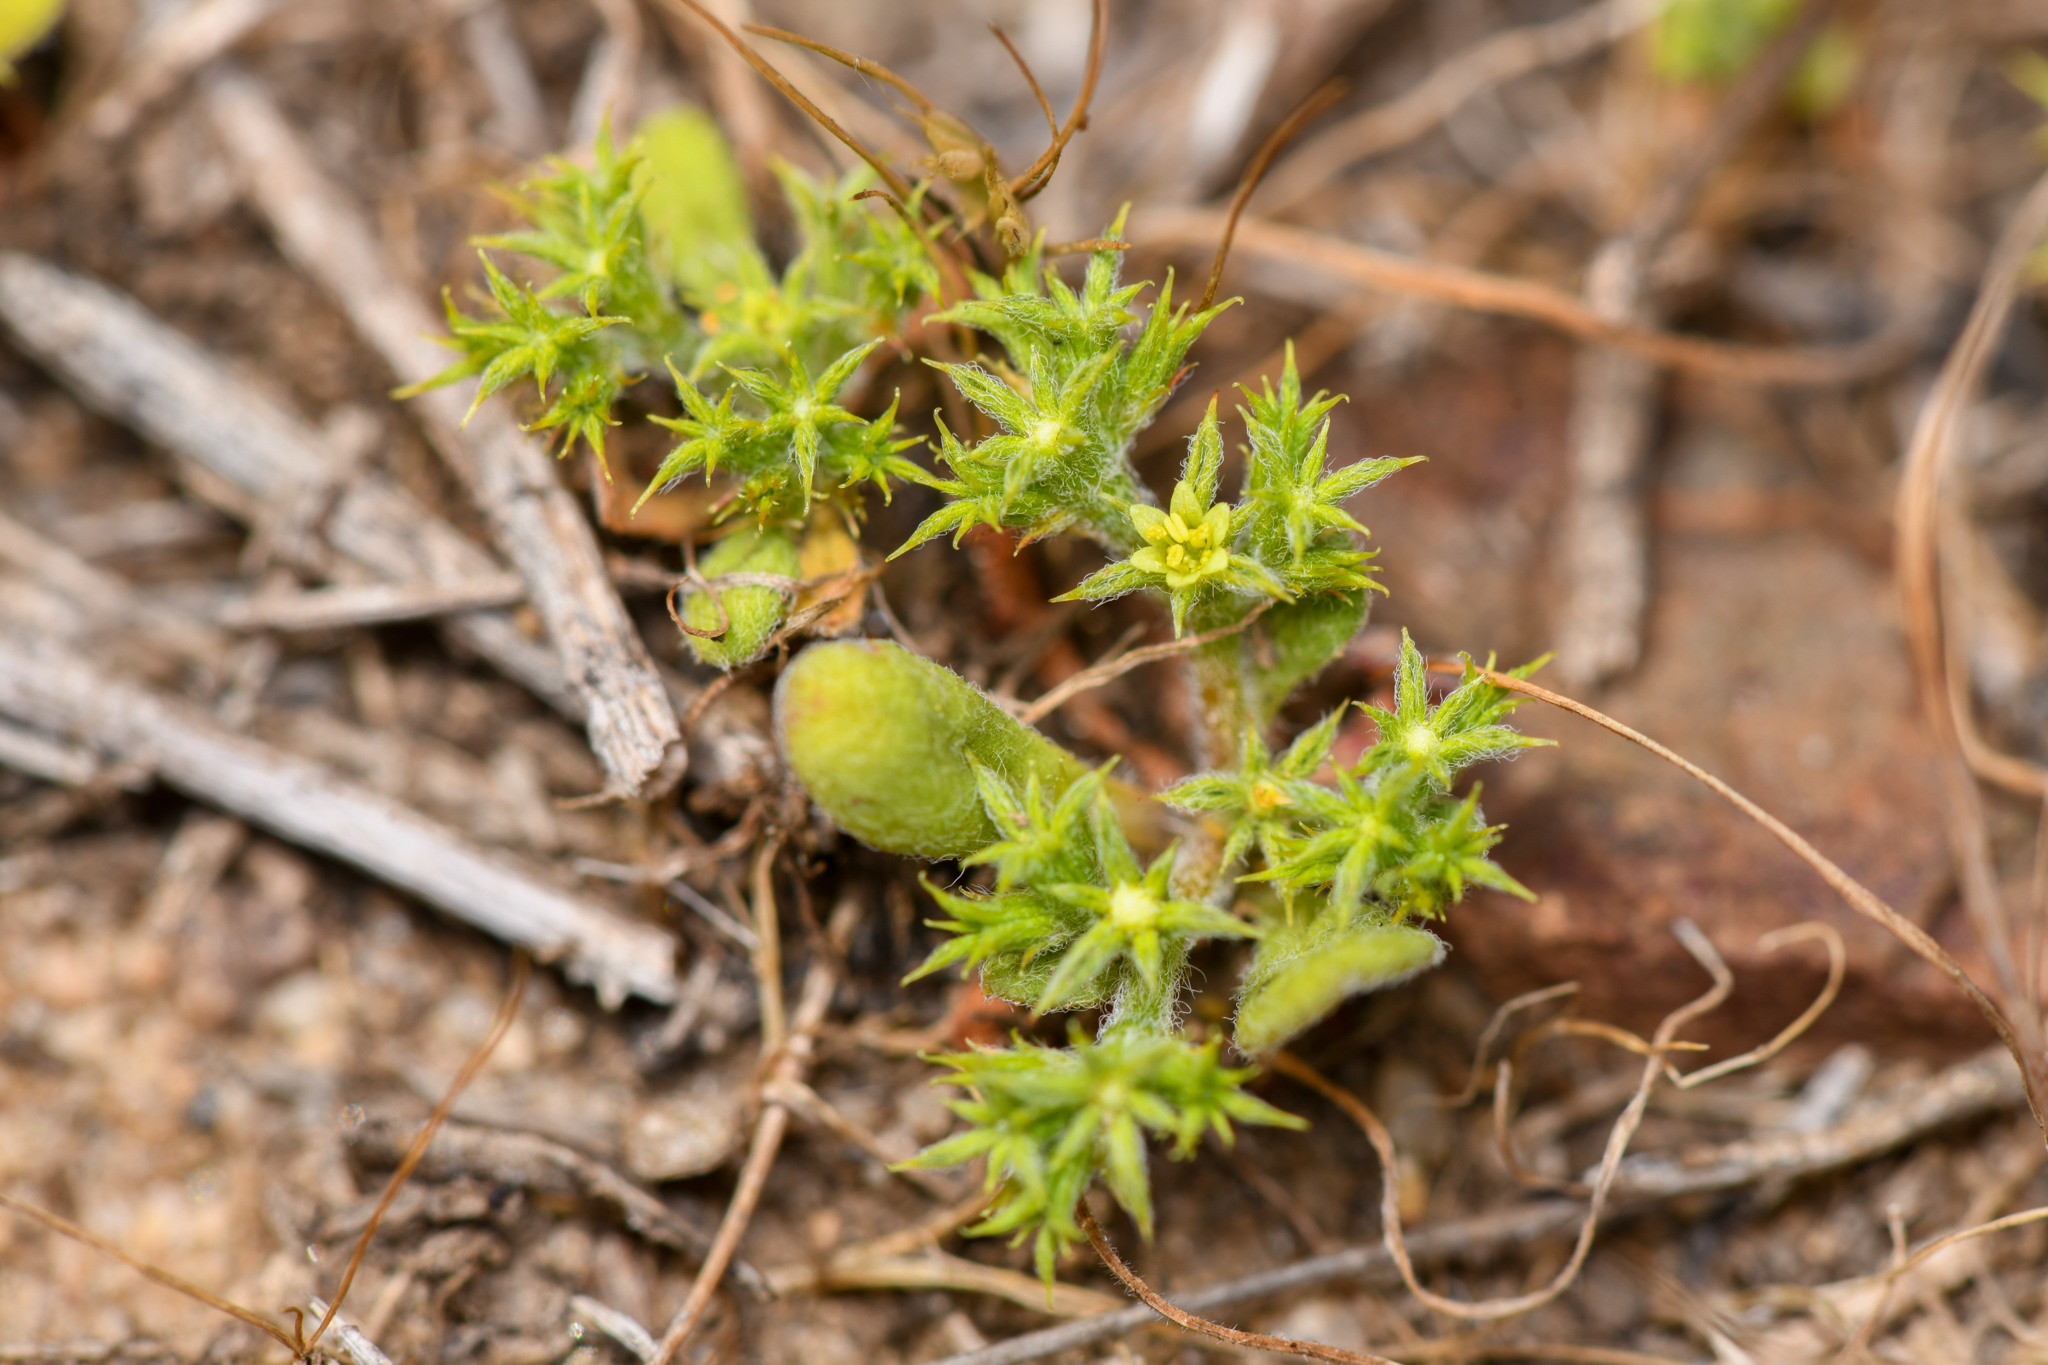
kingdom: Plantae
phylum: Tracheophyta
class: Magnoliopsida
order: Caryophyllales
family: Polygonaceae
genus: Chorizanthe
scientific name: Chorizanthe procumbens
